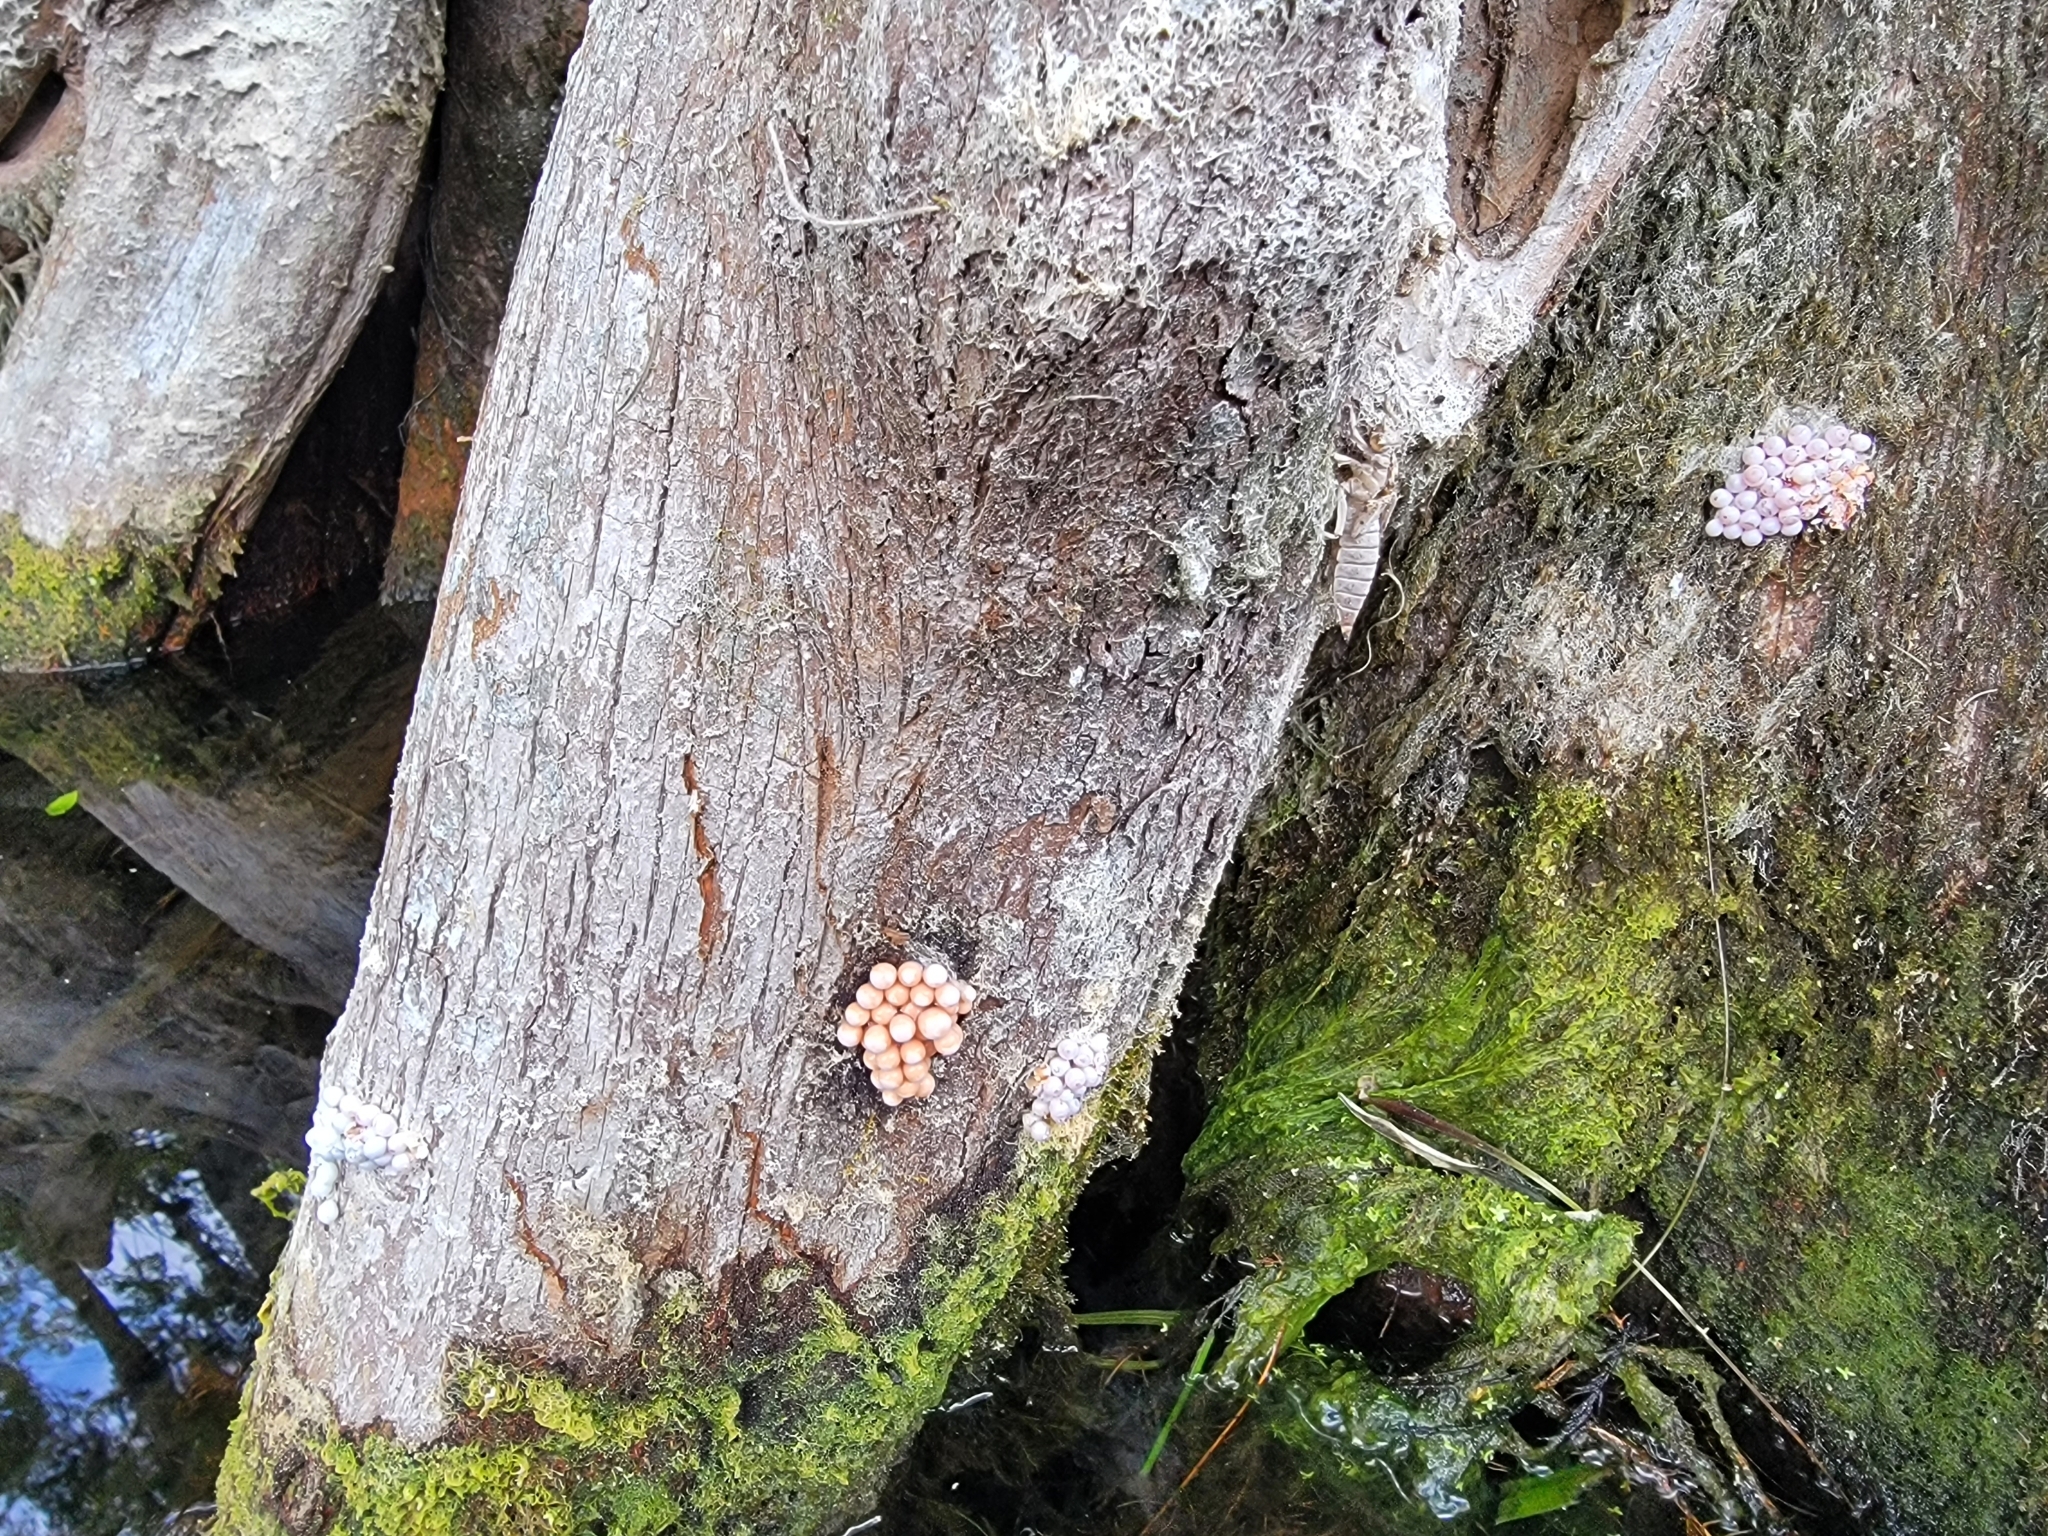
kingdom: Animalia
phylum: Mollusca
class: Gastropoda
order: Architaenioglossa
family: Ampullariidae
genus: Pomacea
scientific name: Pomacea paludosa
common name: Florida applesnail
